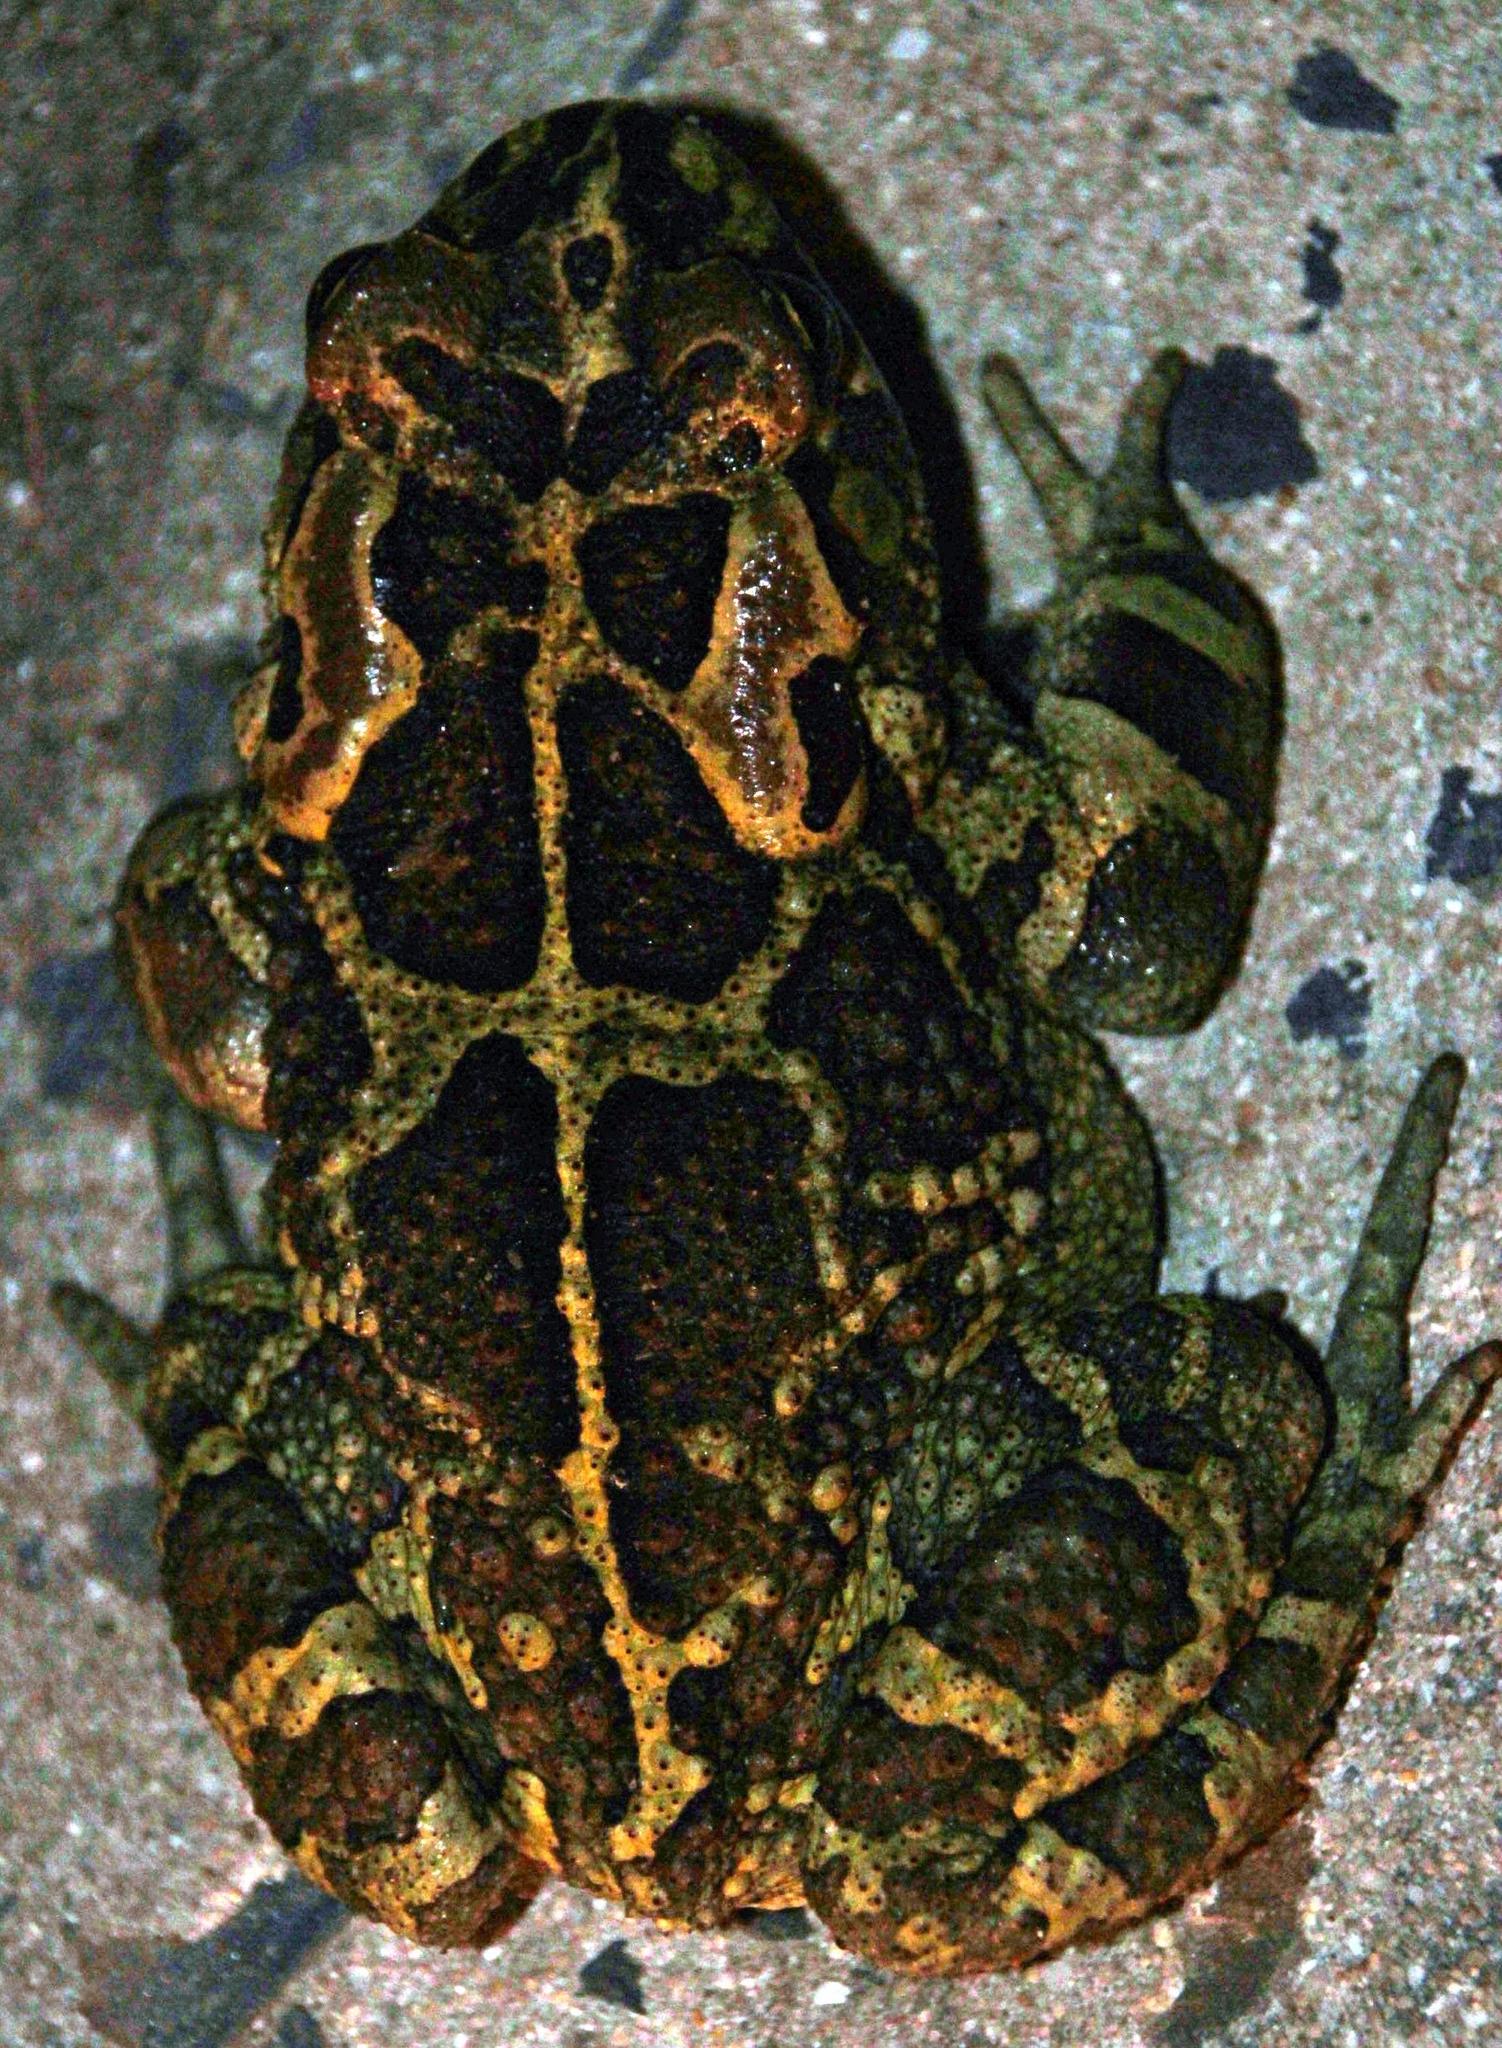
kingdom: Animalia
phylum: Chordata
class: Amphibia
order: Anura
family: Bufonidae
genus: Sclerophrys
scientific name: Sclerophrys pantherina
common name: Panther toad
